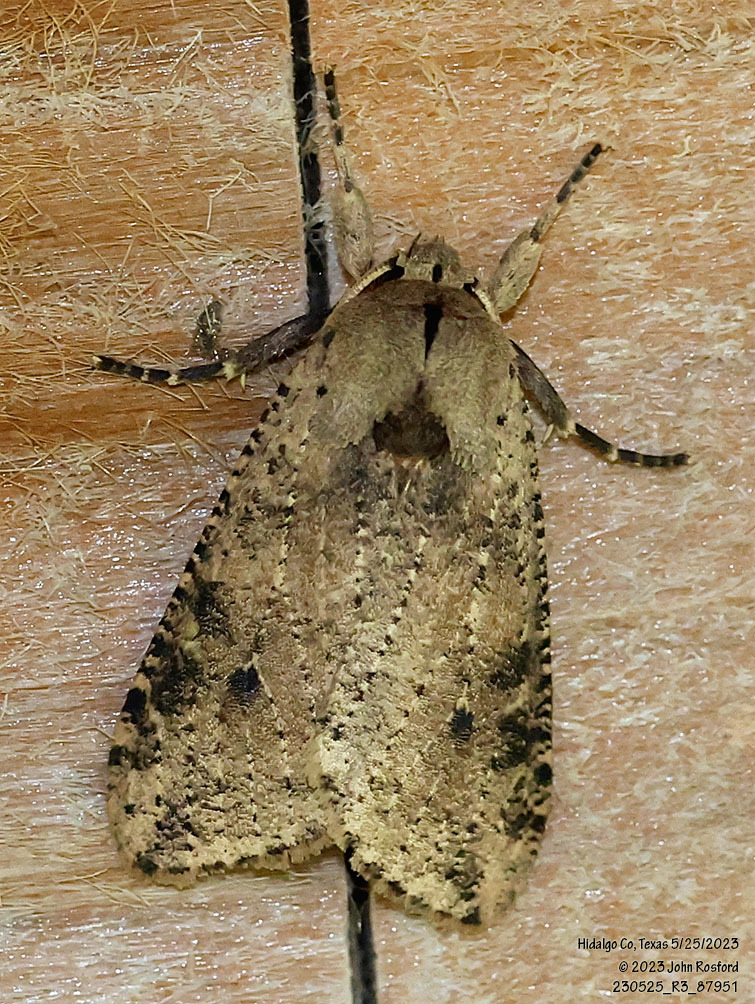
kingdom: Animalia
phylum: Arthropoda
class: Insecta
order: Lepidoptera
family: Erebidae
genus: Purius
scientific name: Purius superpulverea
